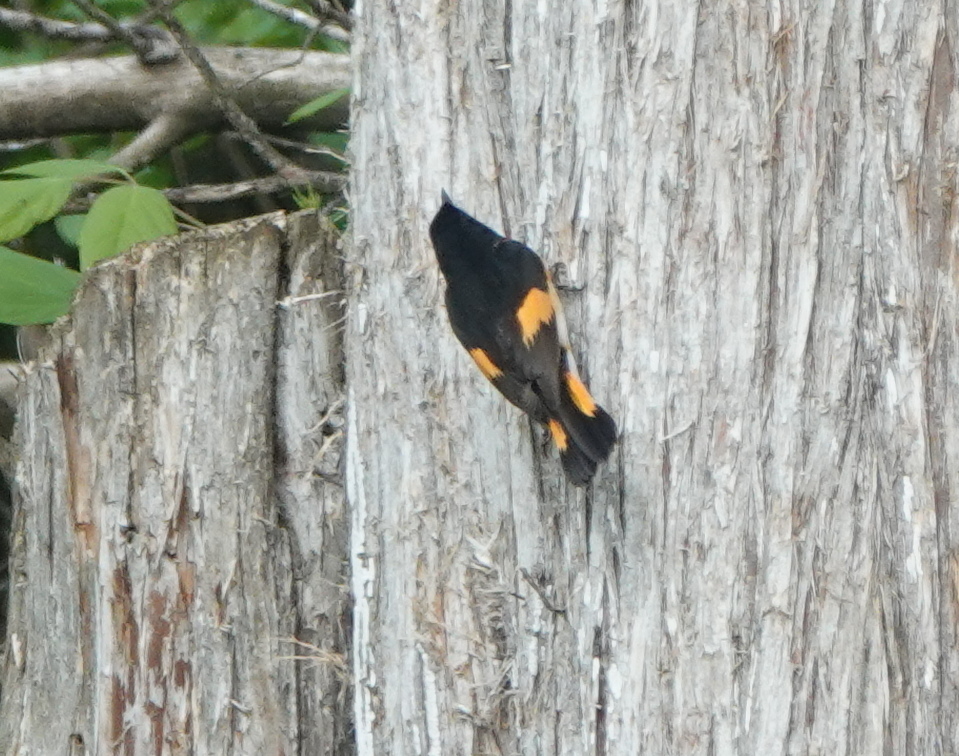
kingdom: Animalia
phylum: Chordata
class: Aves
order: Passeriformes
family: Parulidae
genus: Setophaga
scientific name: Setophaga ruticilla
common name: American redstart
